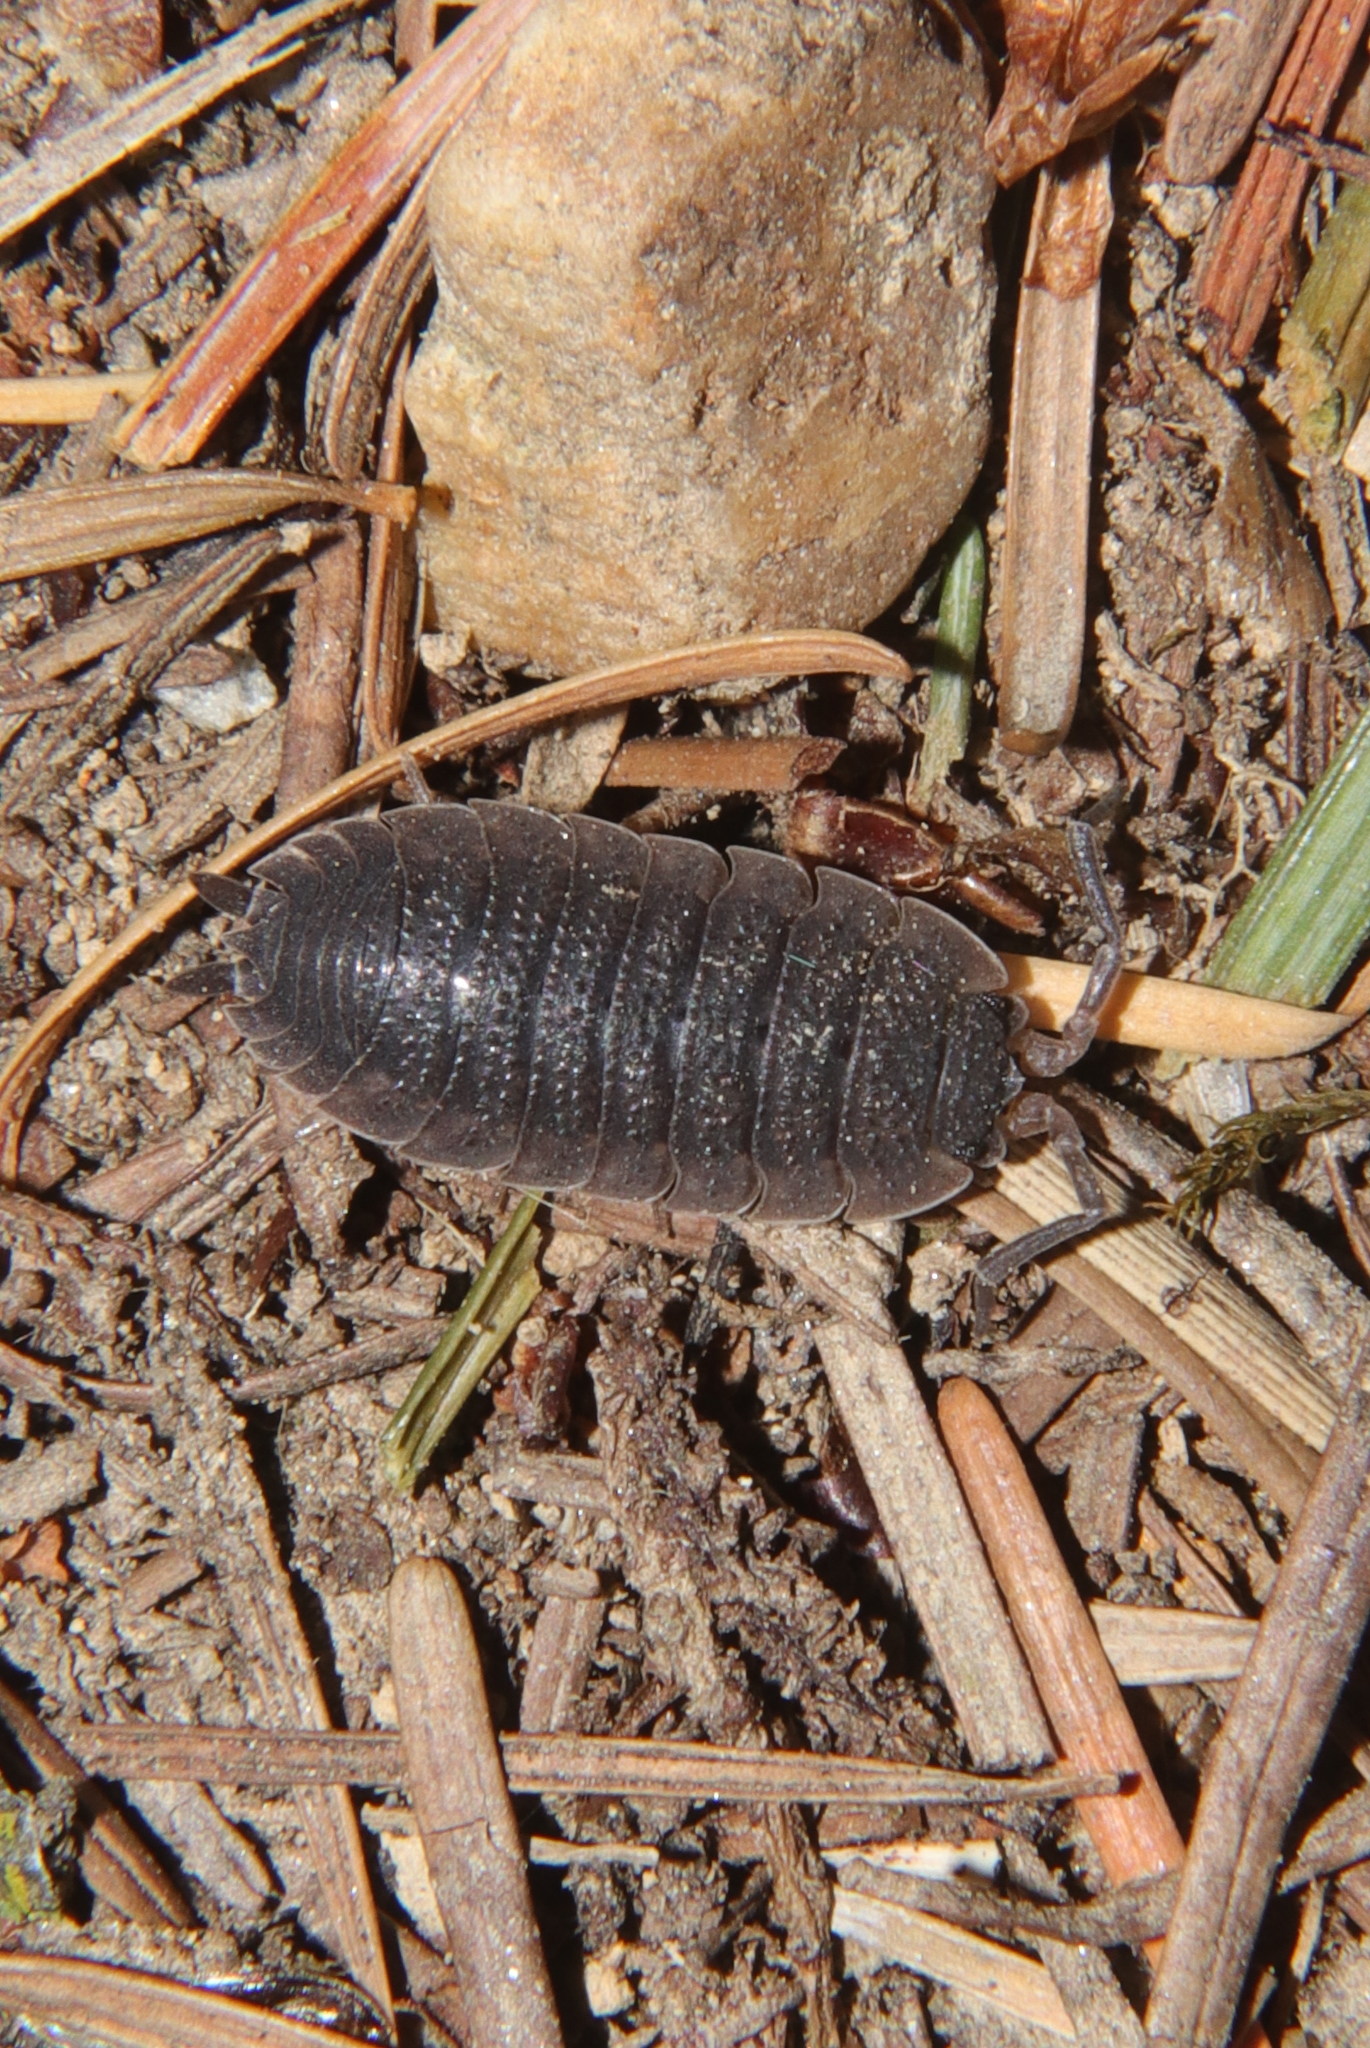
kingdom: Animalia
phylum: Arthropoda
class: Malacostraca
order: Isopoda
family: Porcellionidae
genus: Porcellio
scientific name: Porcellio scaber
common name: Common rough woodlouse
